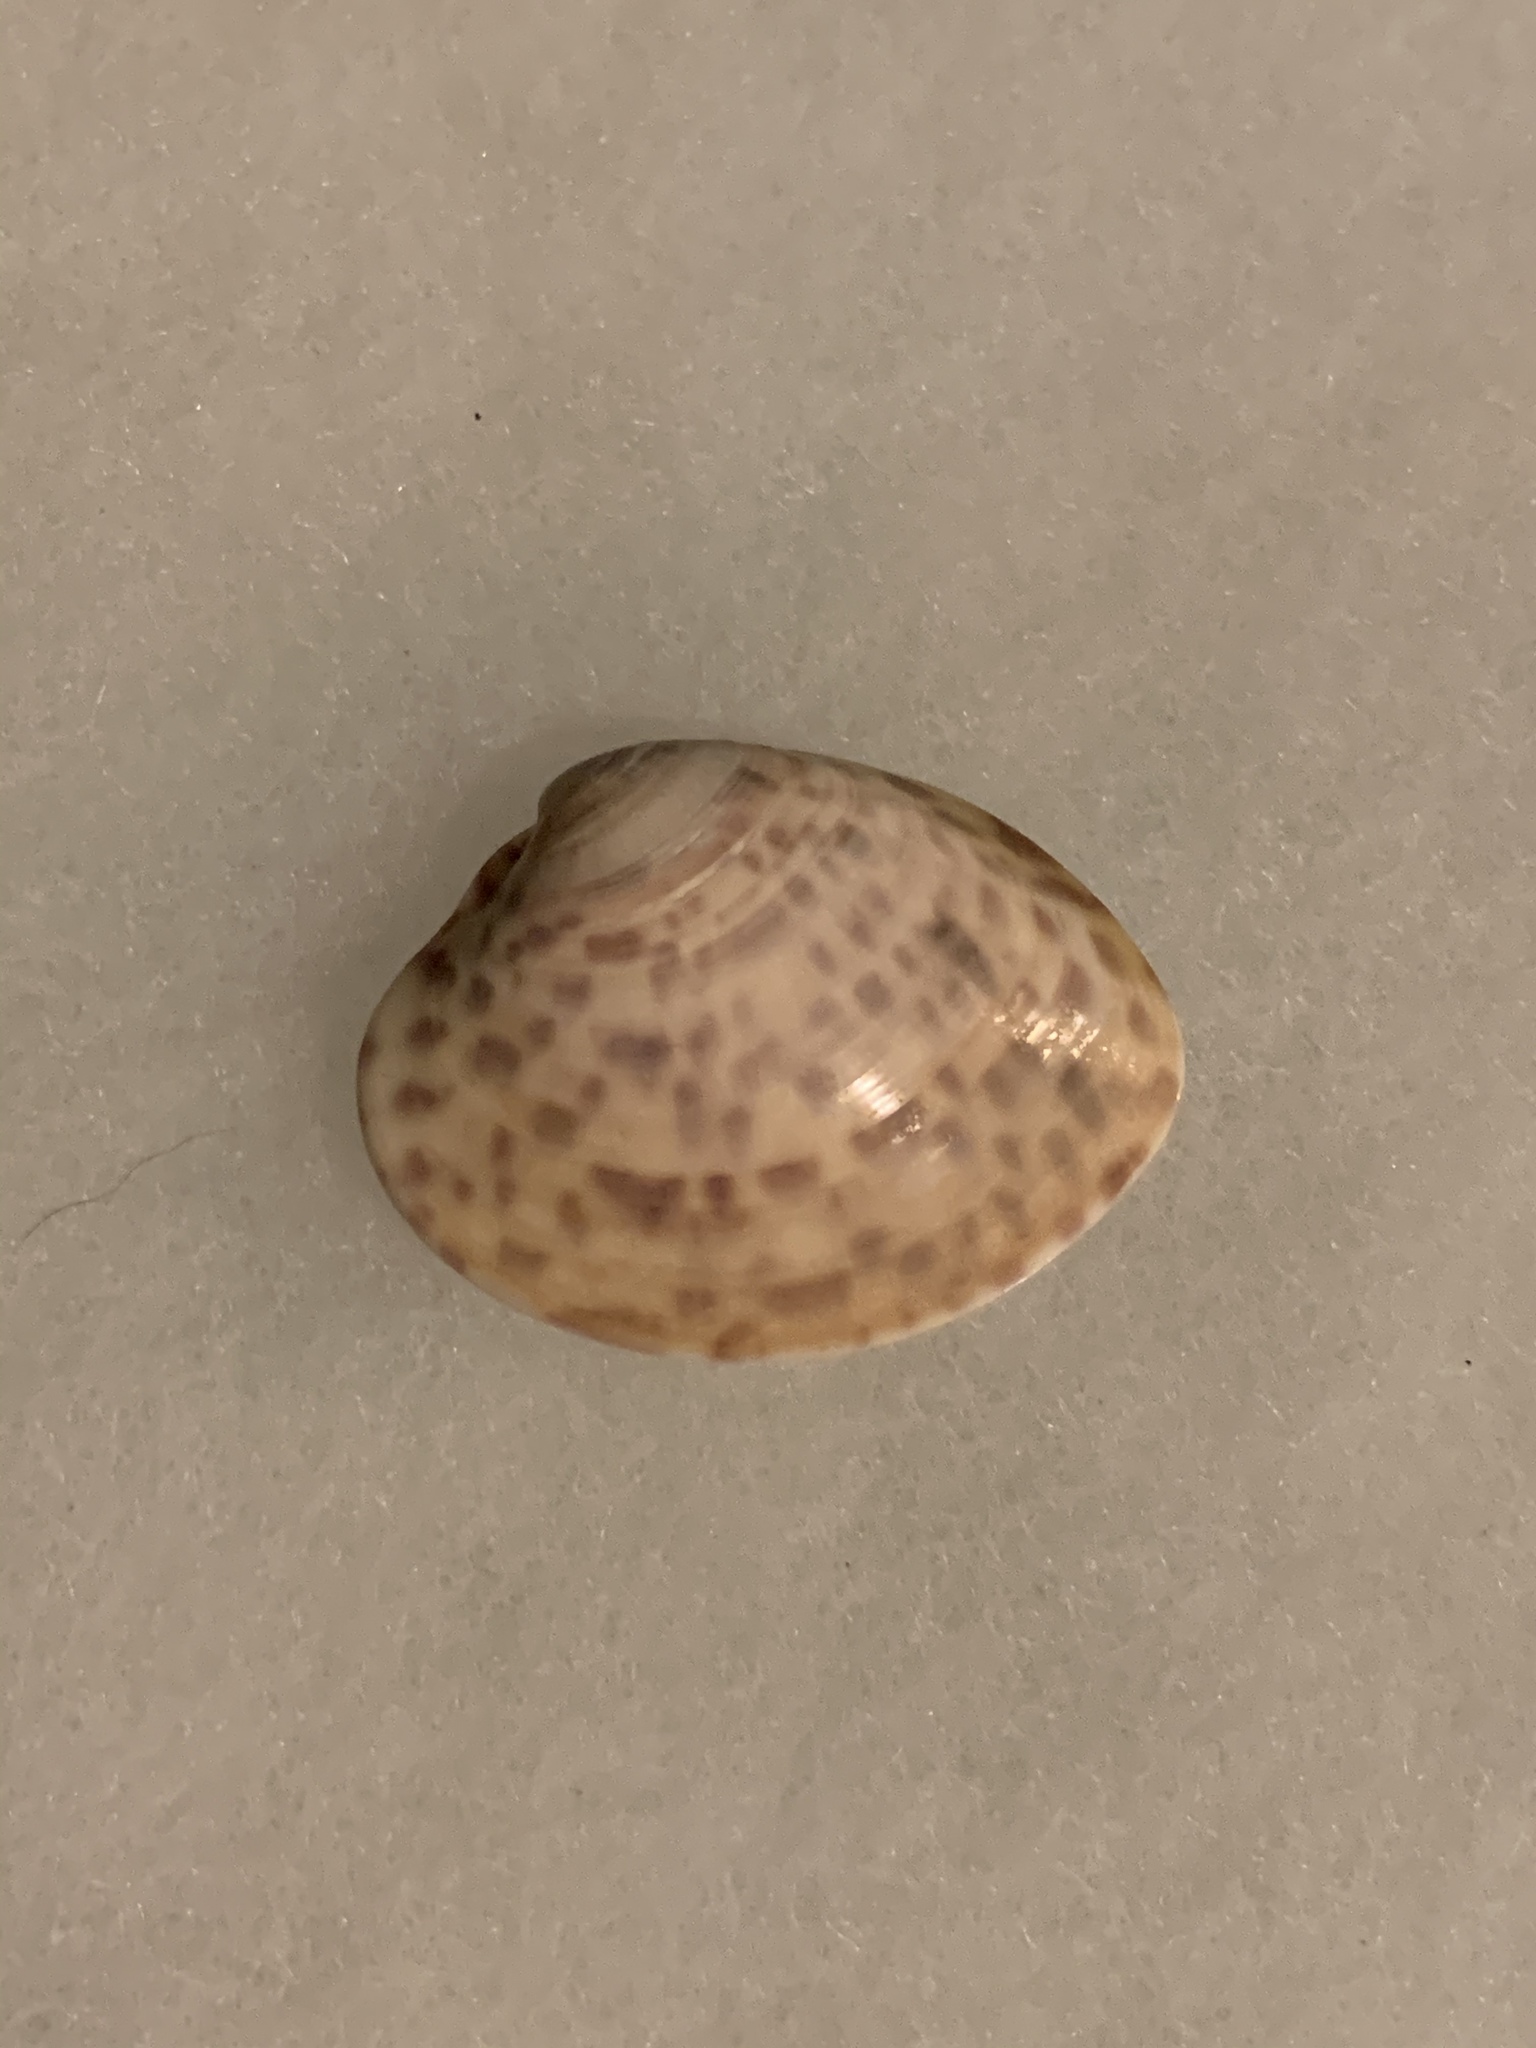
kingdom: Animalia
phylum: Mollusca
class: Bivalvia
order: Venerida
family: Veneridae
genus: Megapitaria
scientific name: Megapitaria maculata
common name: Calico clam
